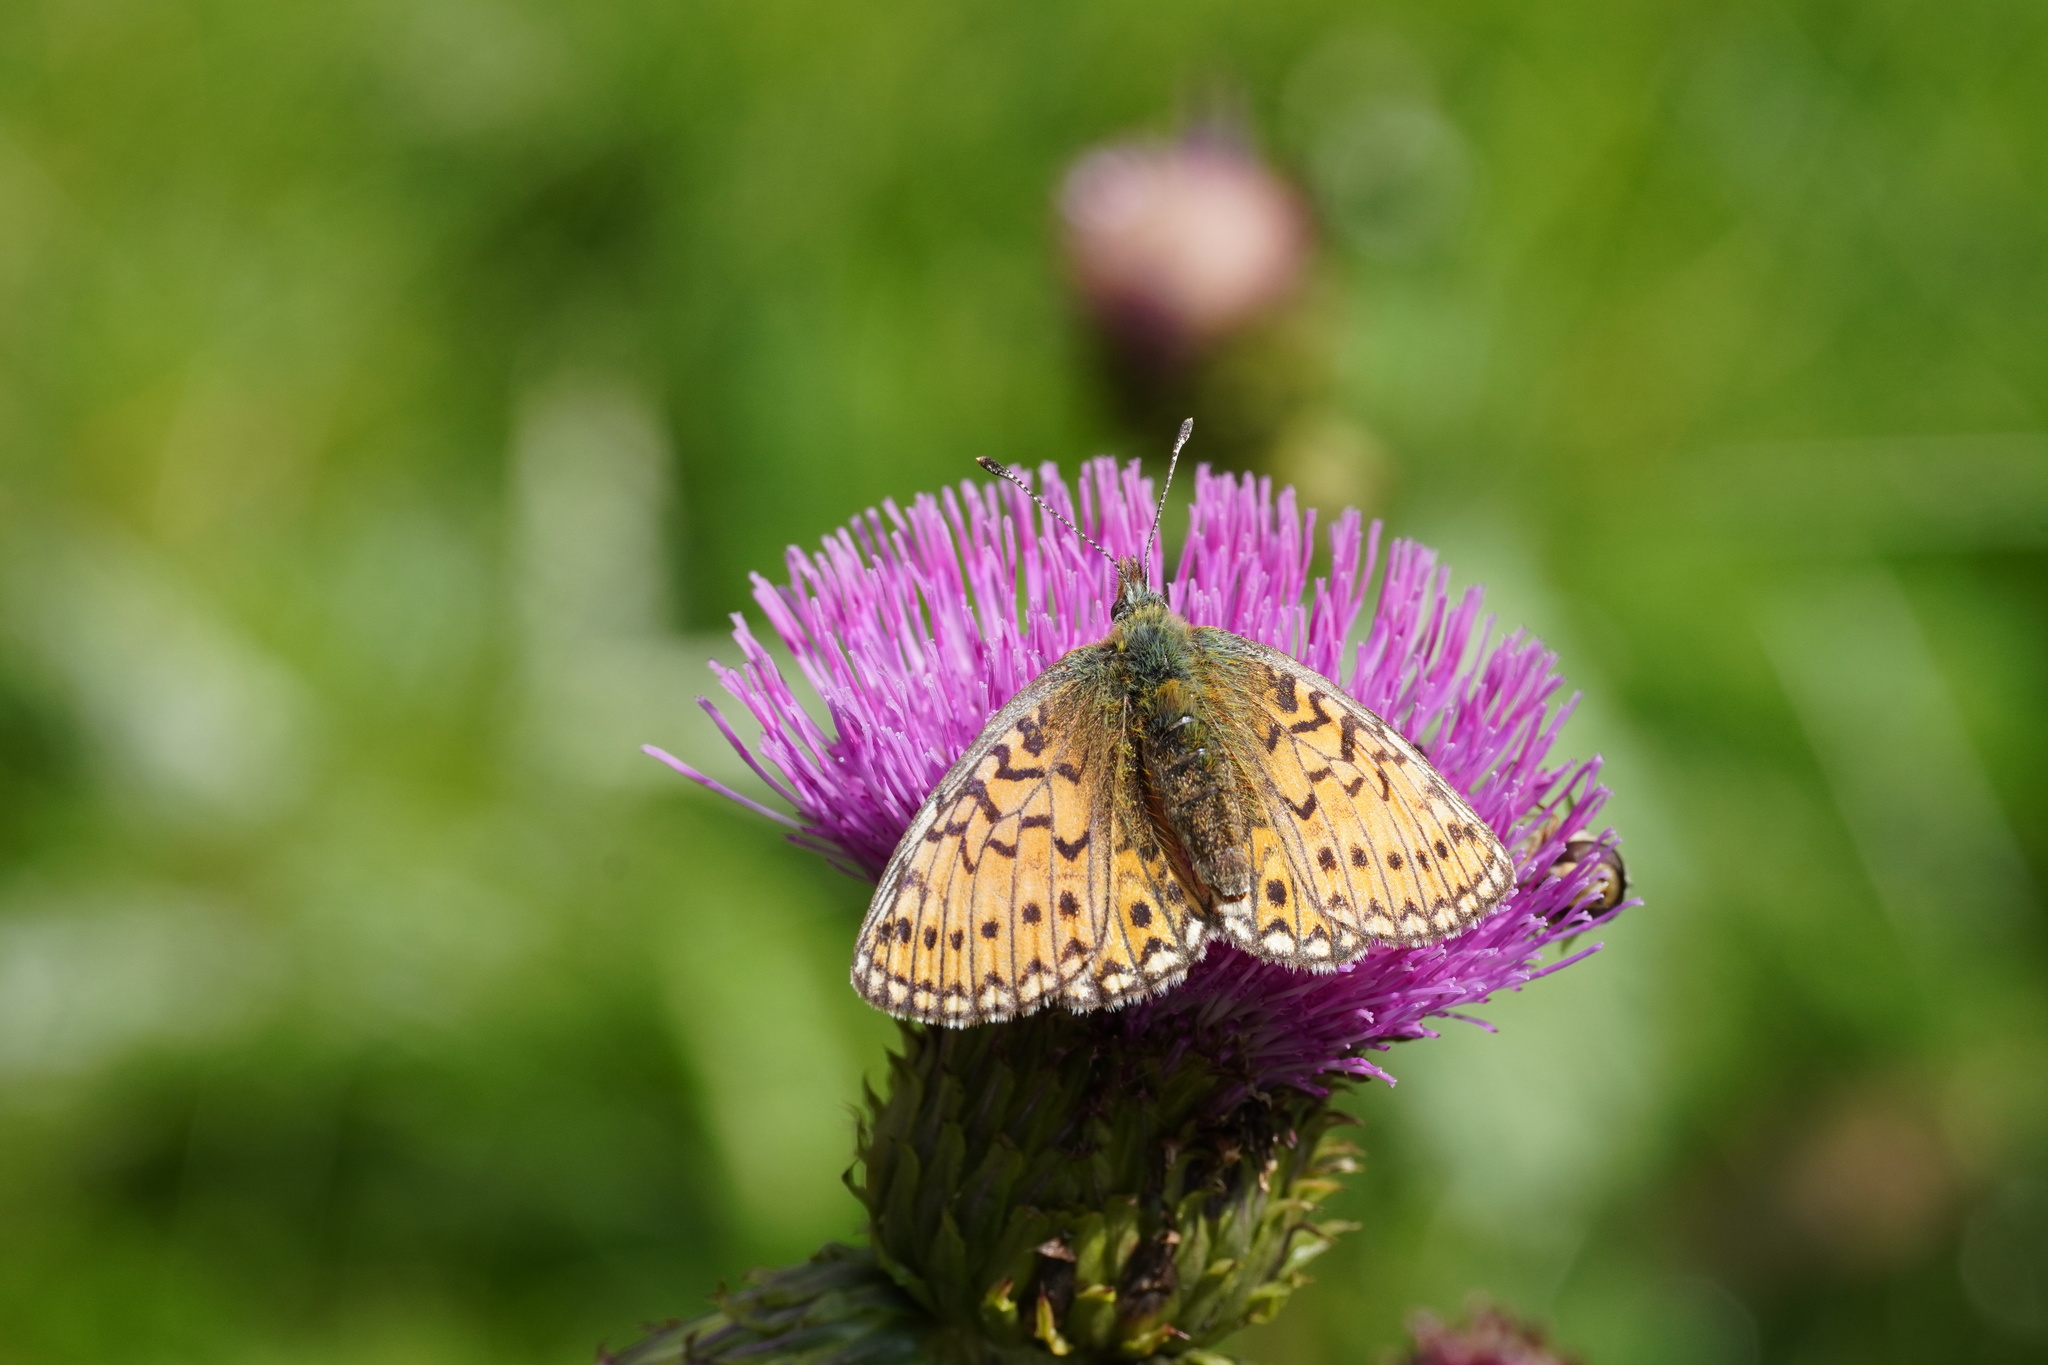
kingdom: Animalia
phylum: Arthropoda
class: Insecta
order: Lepidoptera
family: Nymphalidae
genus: Boloria
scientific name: Boloria eunomia
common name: Bog fritillary
